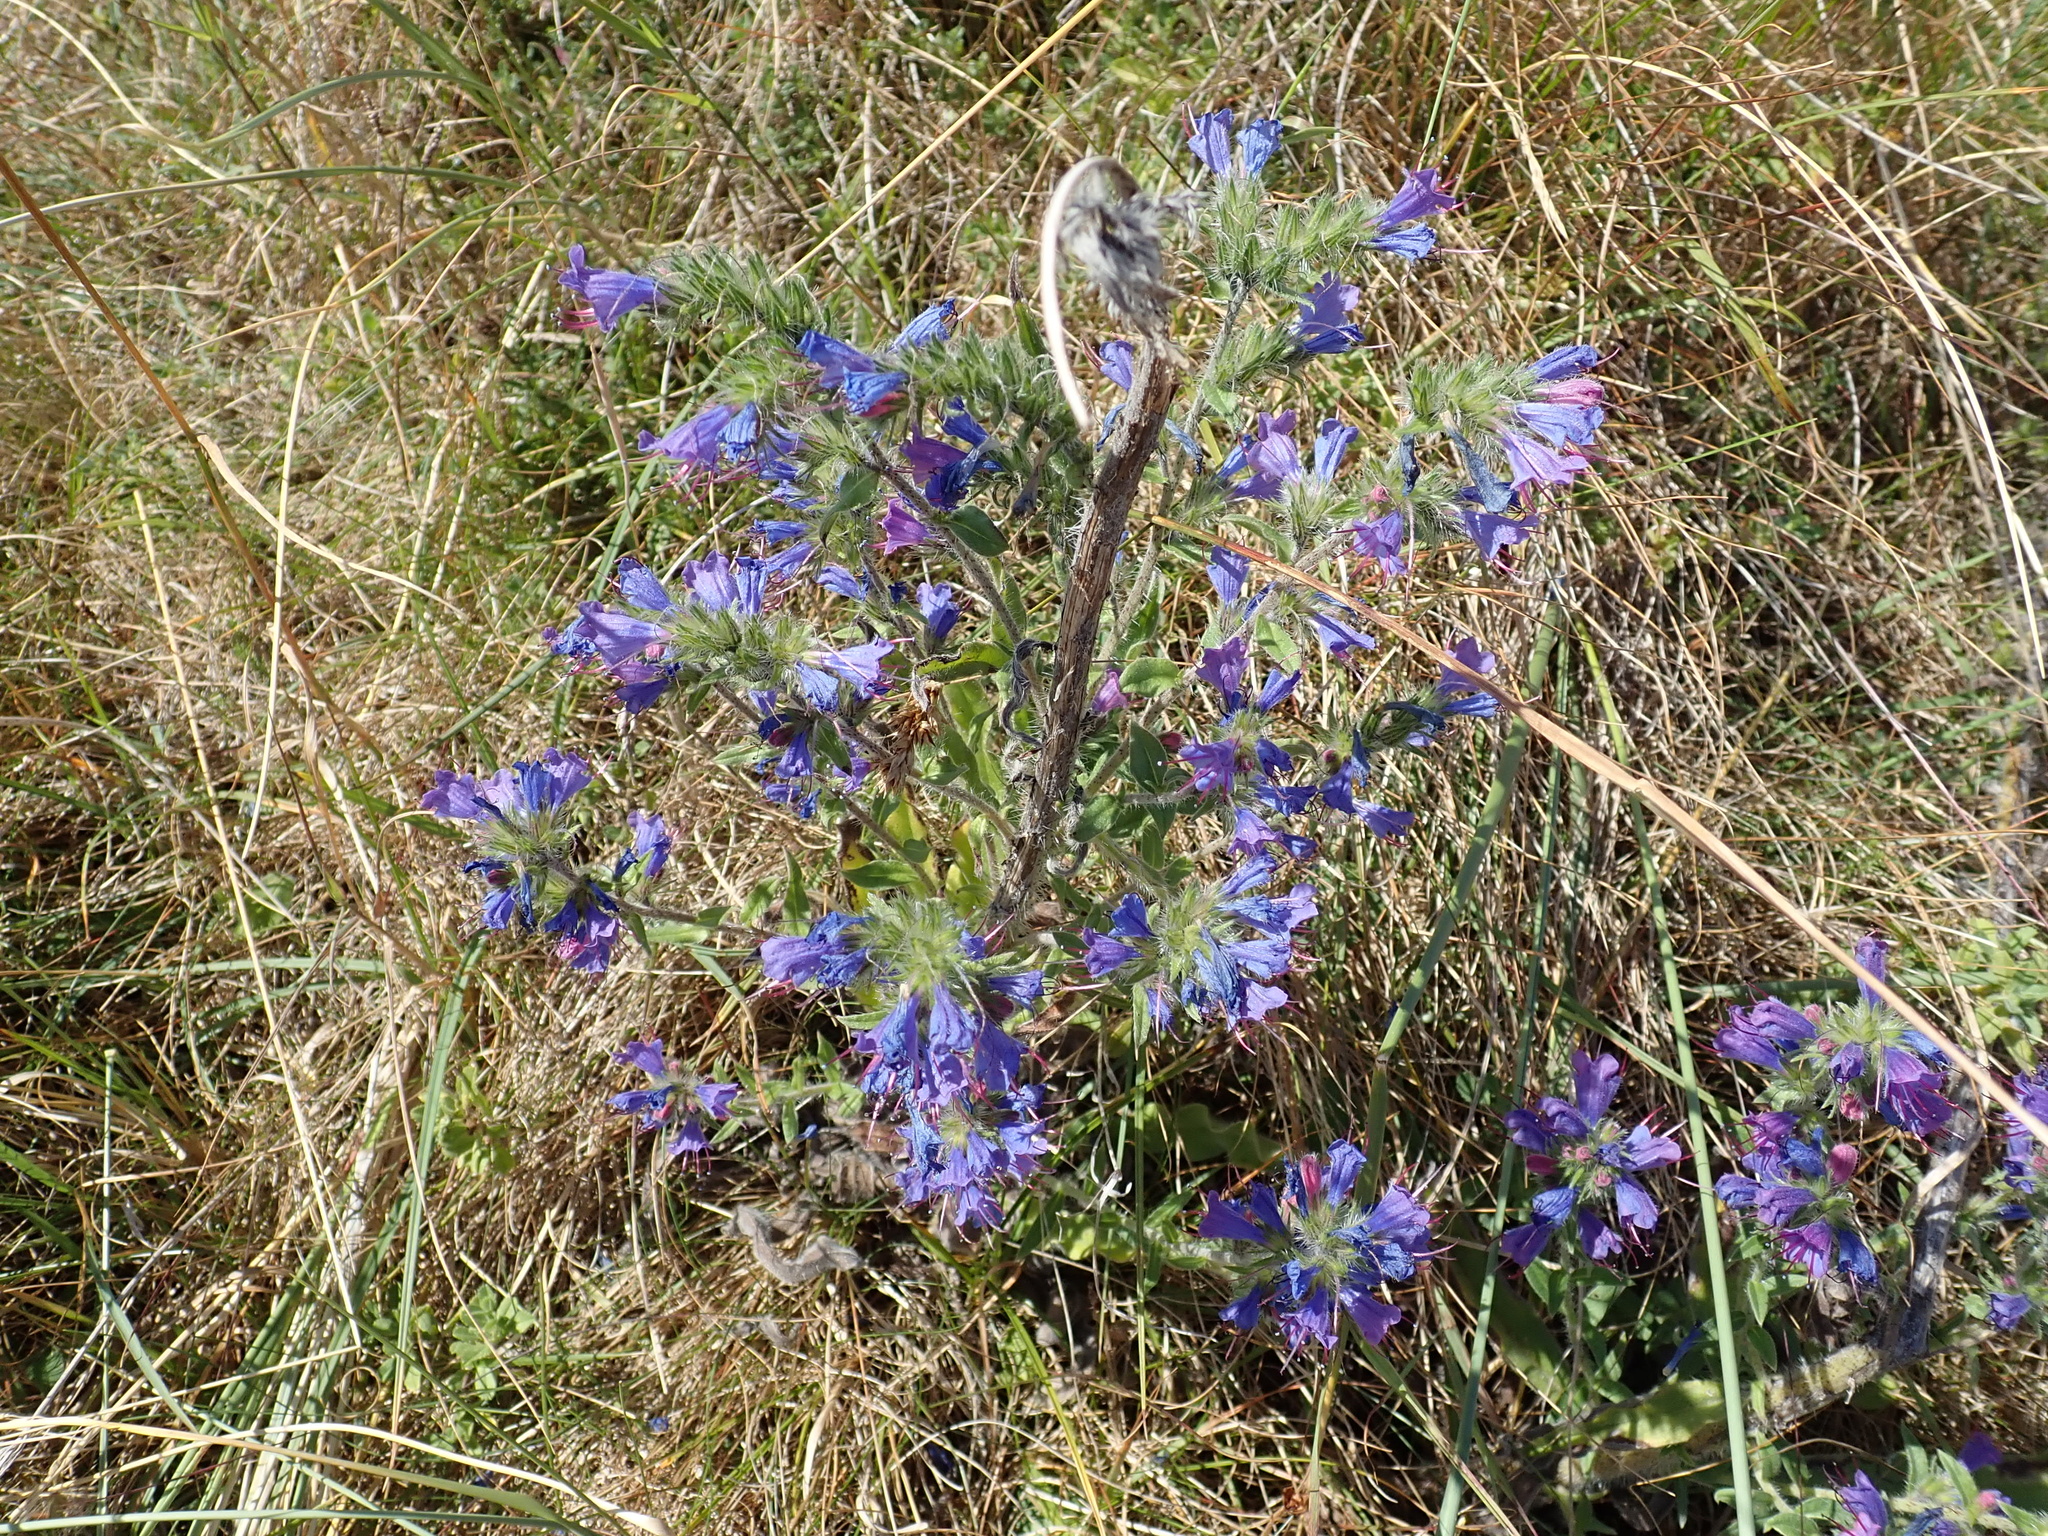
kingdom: Plantae
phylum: Tracheophyta
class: Magnoliopsida
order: Boraginales
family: Boraginaceae
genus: Echium
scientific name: Echium vulgare
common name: Common viper's bugloss
